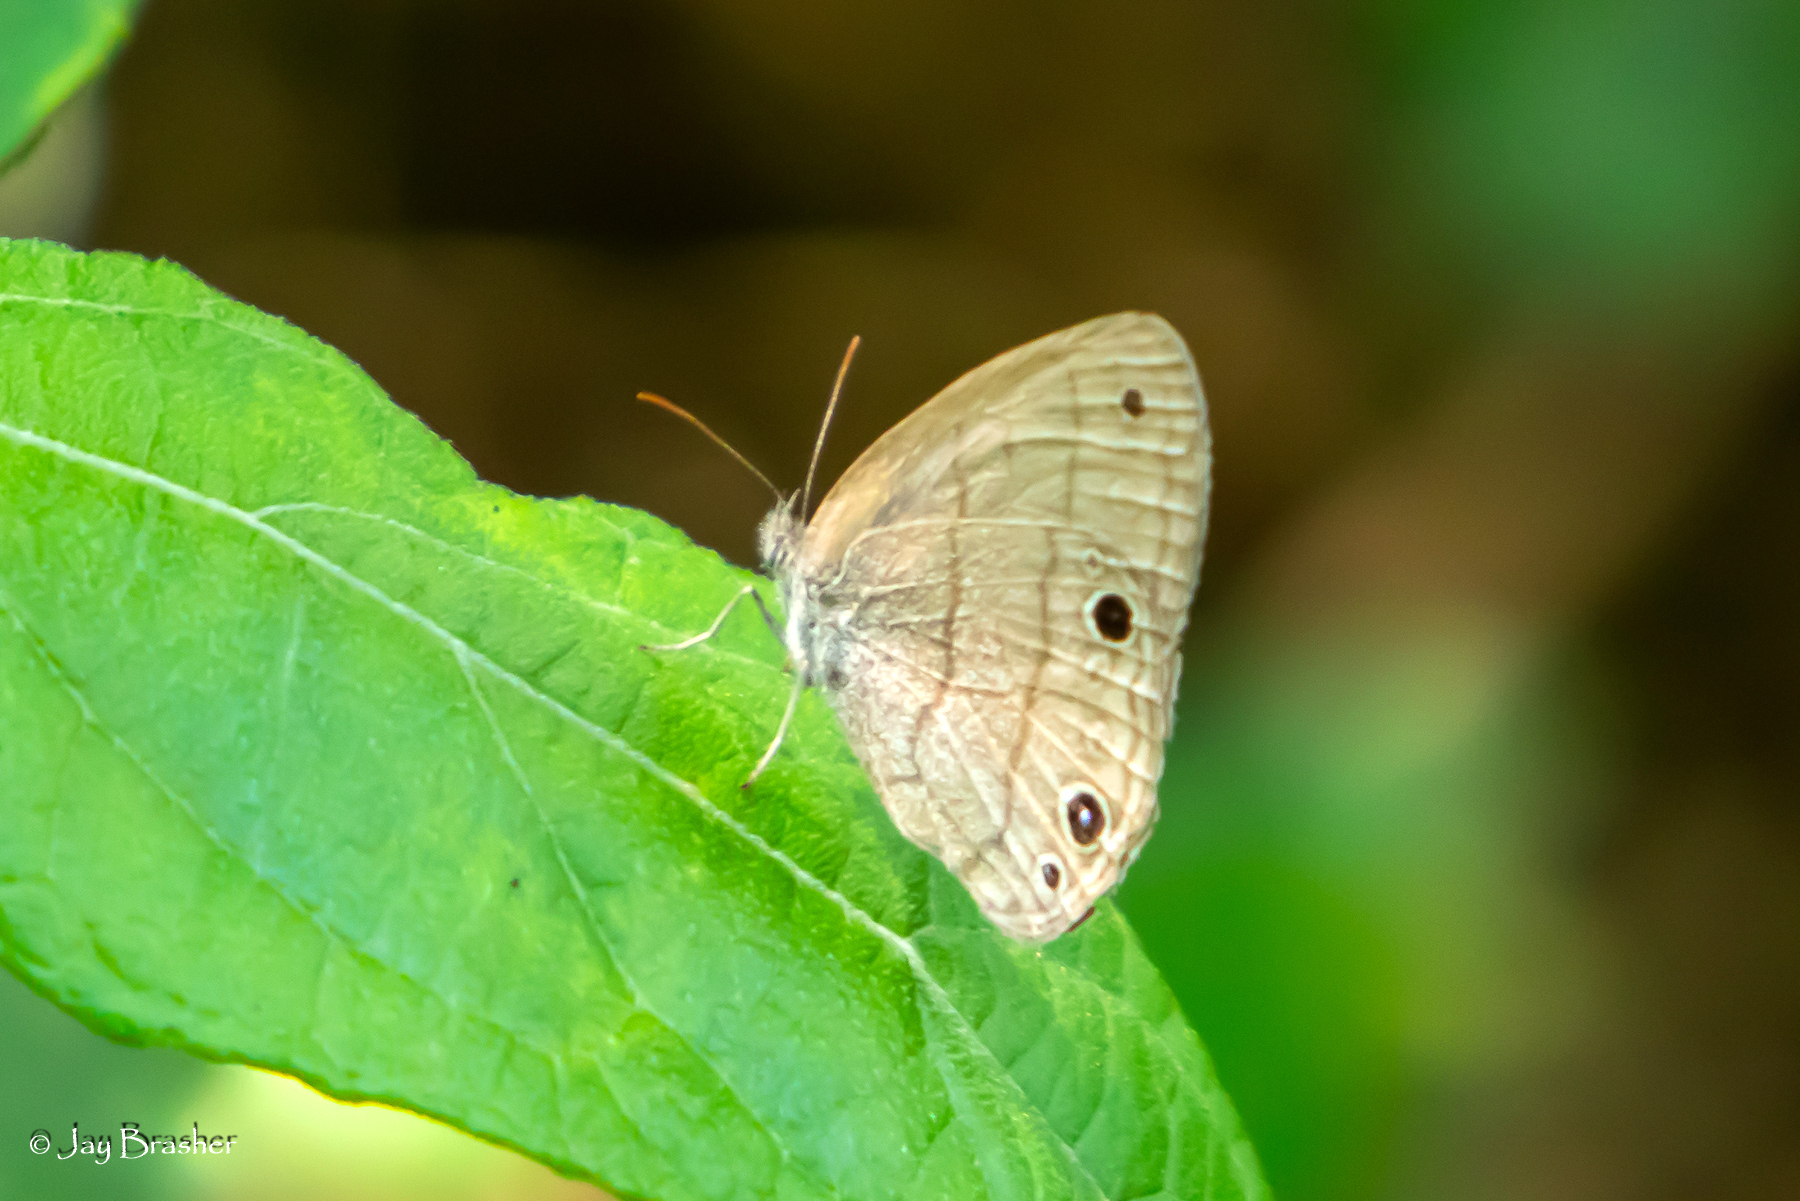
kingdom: Animalia
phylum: Arthropoda
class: Insecta
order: Lepidoptera
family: Nymphalidae
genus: Hermeuptychia
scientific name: Hermeuptychia hermes
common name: Hermes satyr
